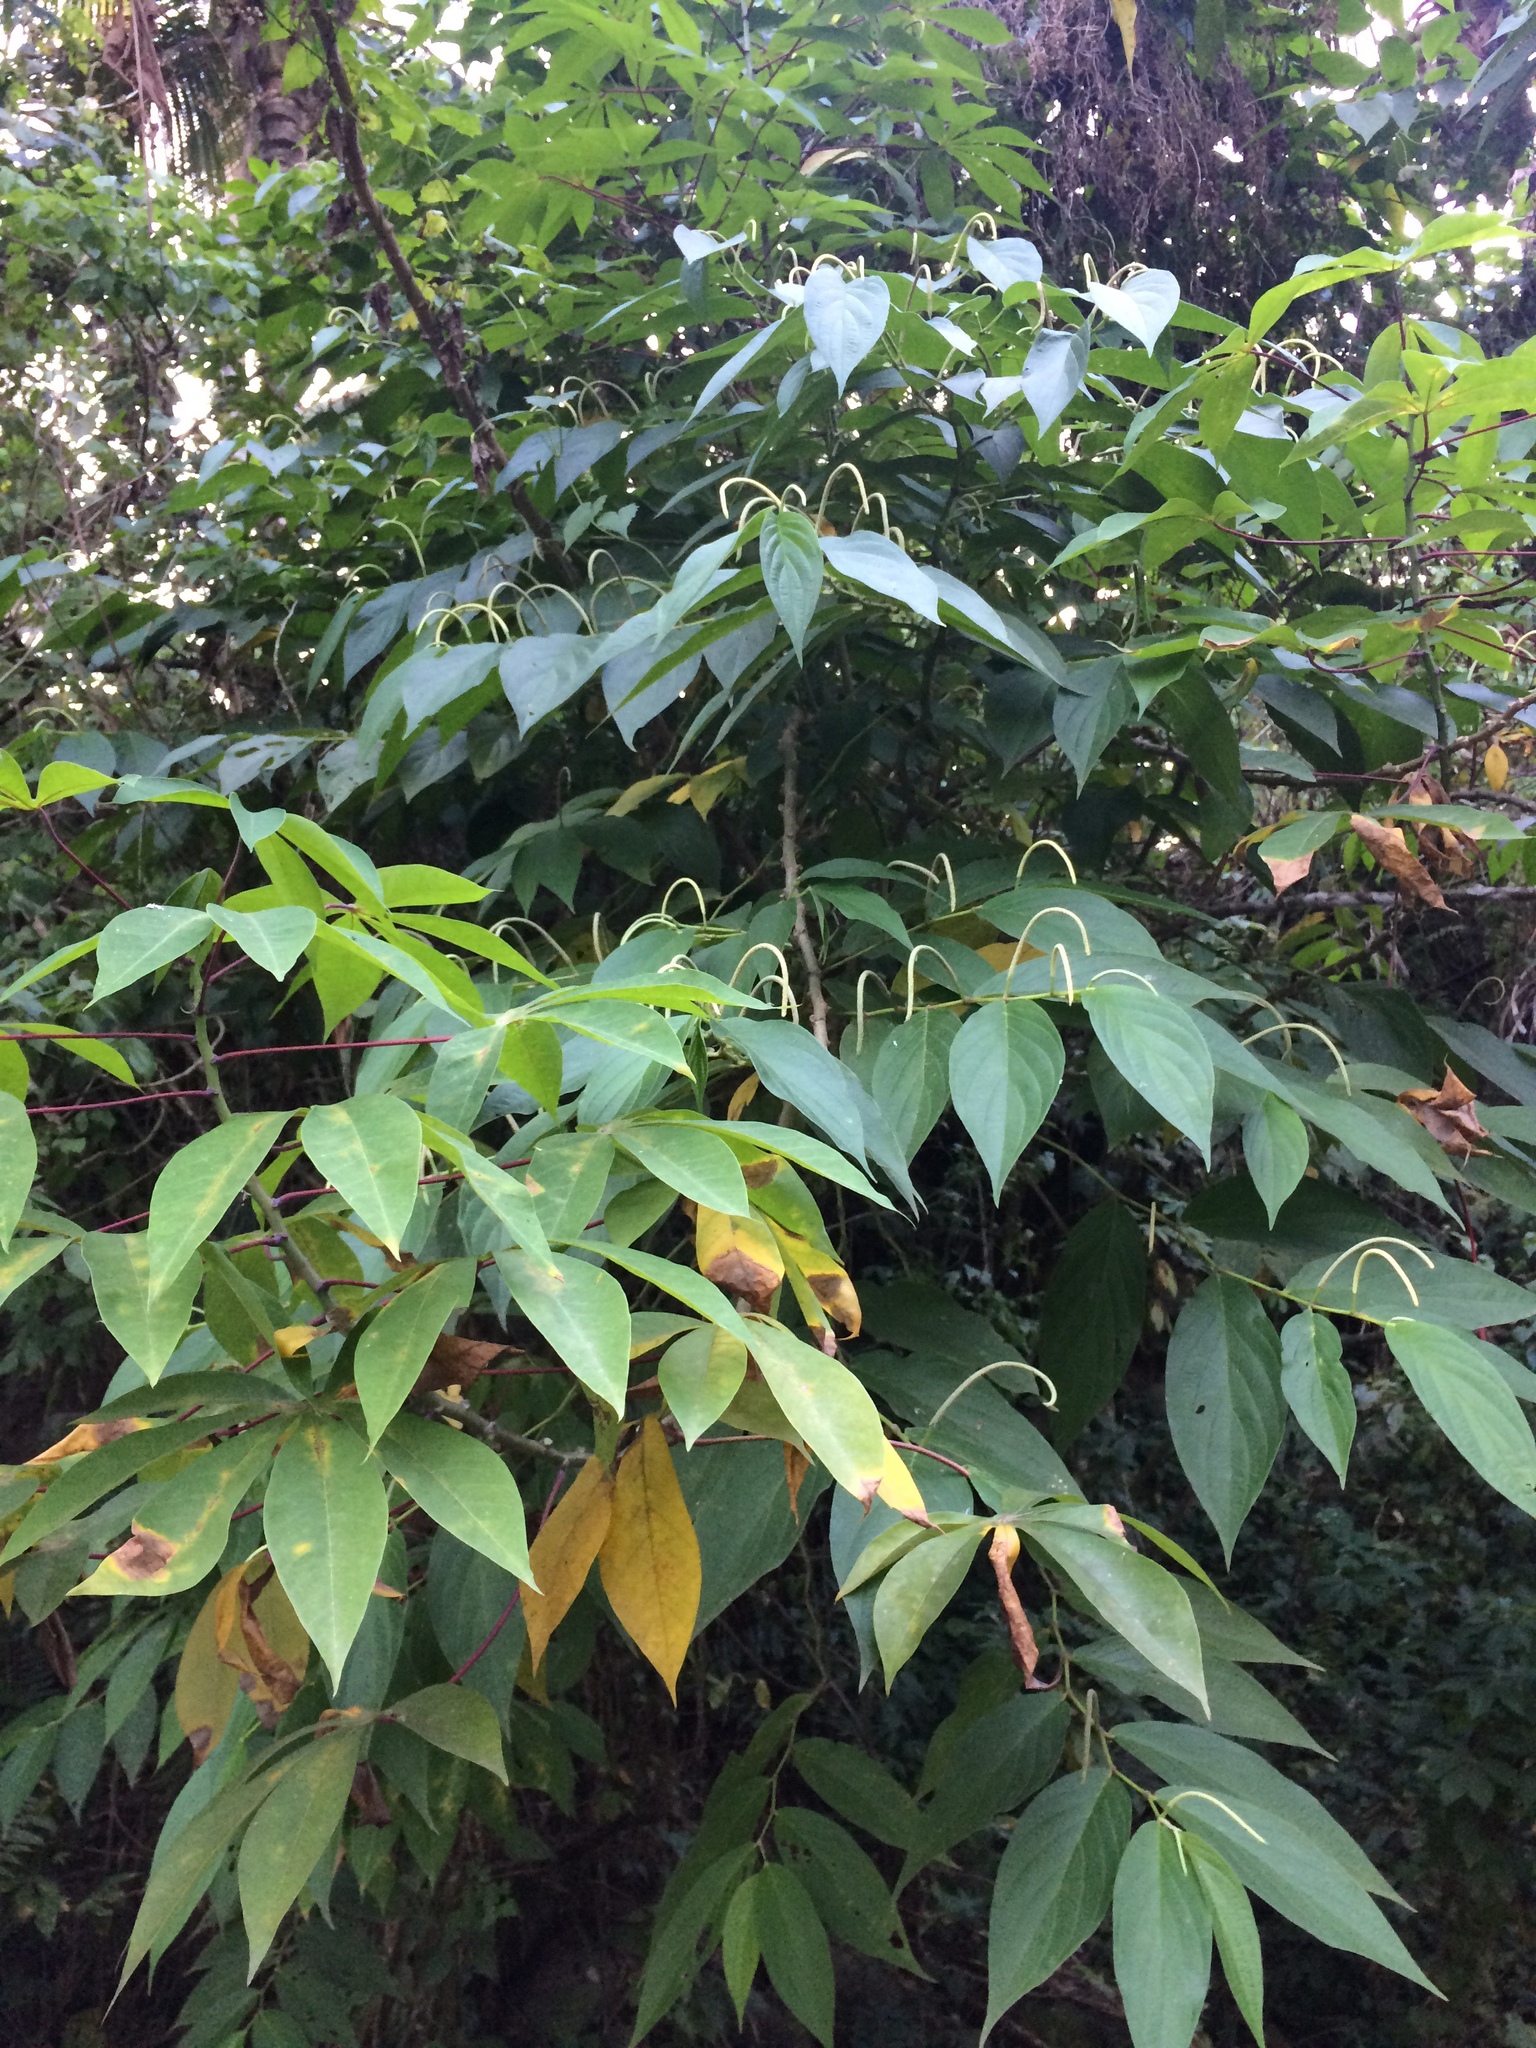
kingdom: Plantae
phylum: Tracheophyta
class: Magnoliopsida
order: Malpighiales
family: Euphorbiaceae
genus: Manihot
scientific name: Manihot esculenta
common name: Cassava
